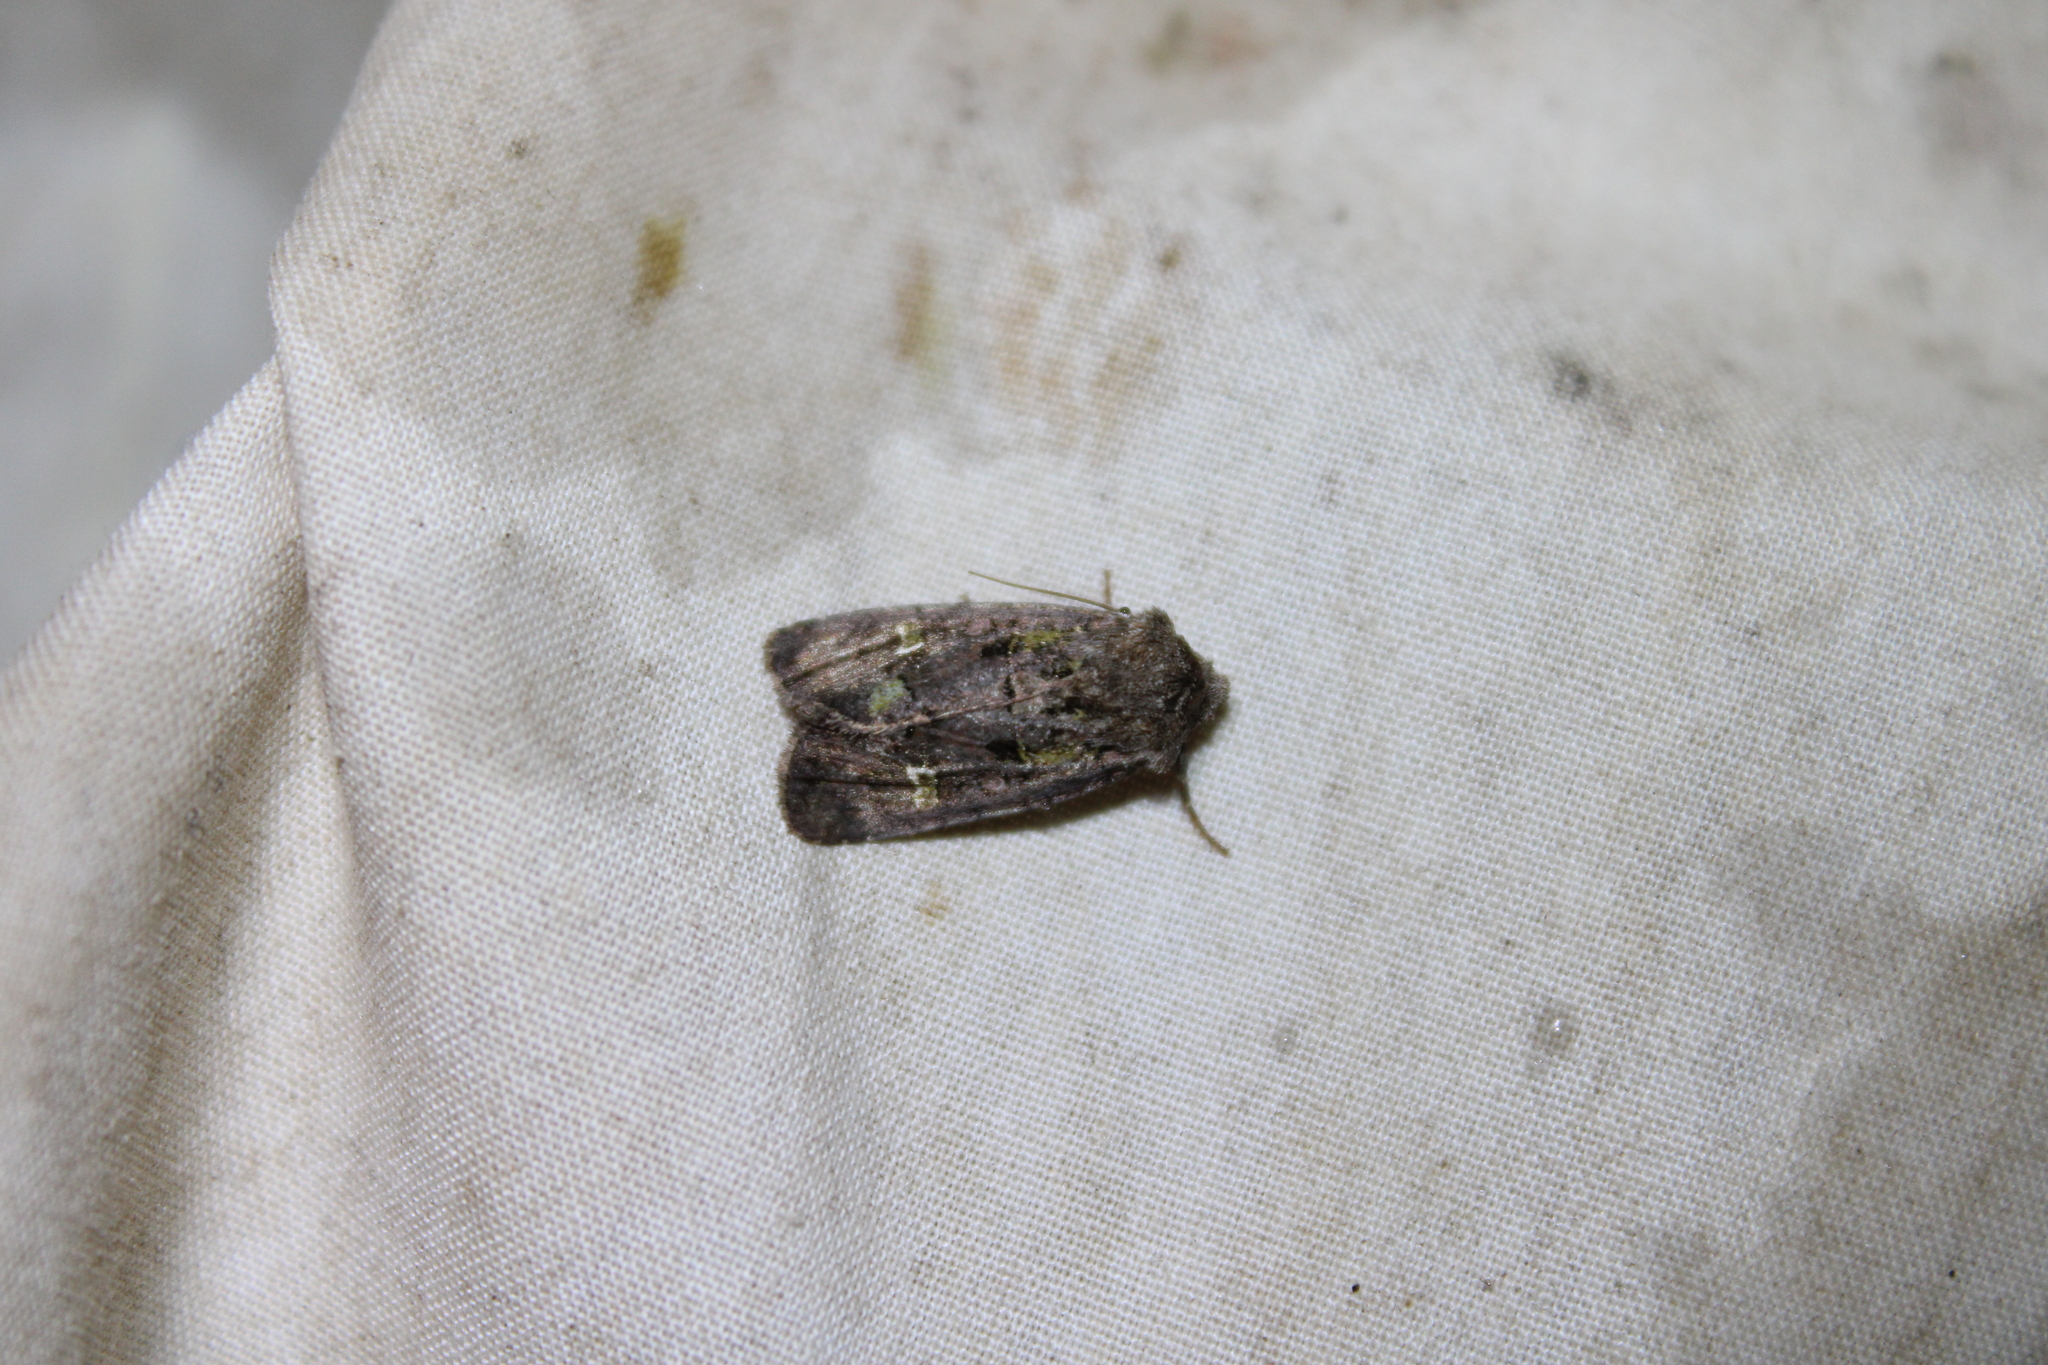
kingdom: Animalia
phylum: Arthropoda
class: Insecta
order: Lepidoptera
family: Noctuidae
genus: Lacinipolia
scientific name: Lacinipolia renigera
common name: Kidney-spotted minor
